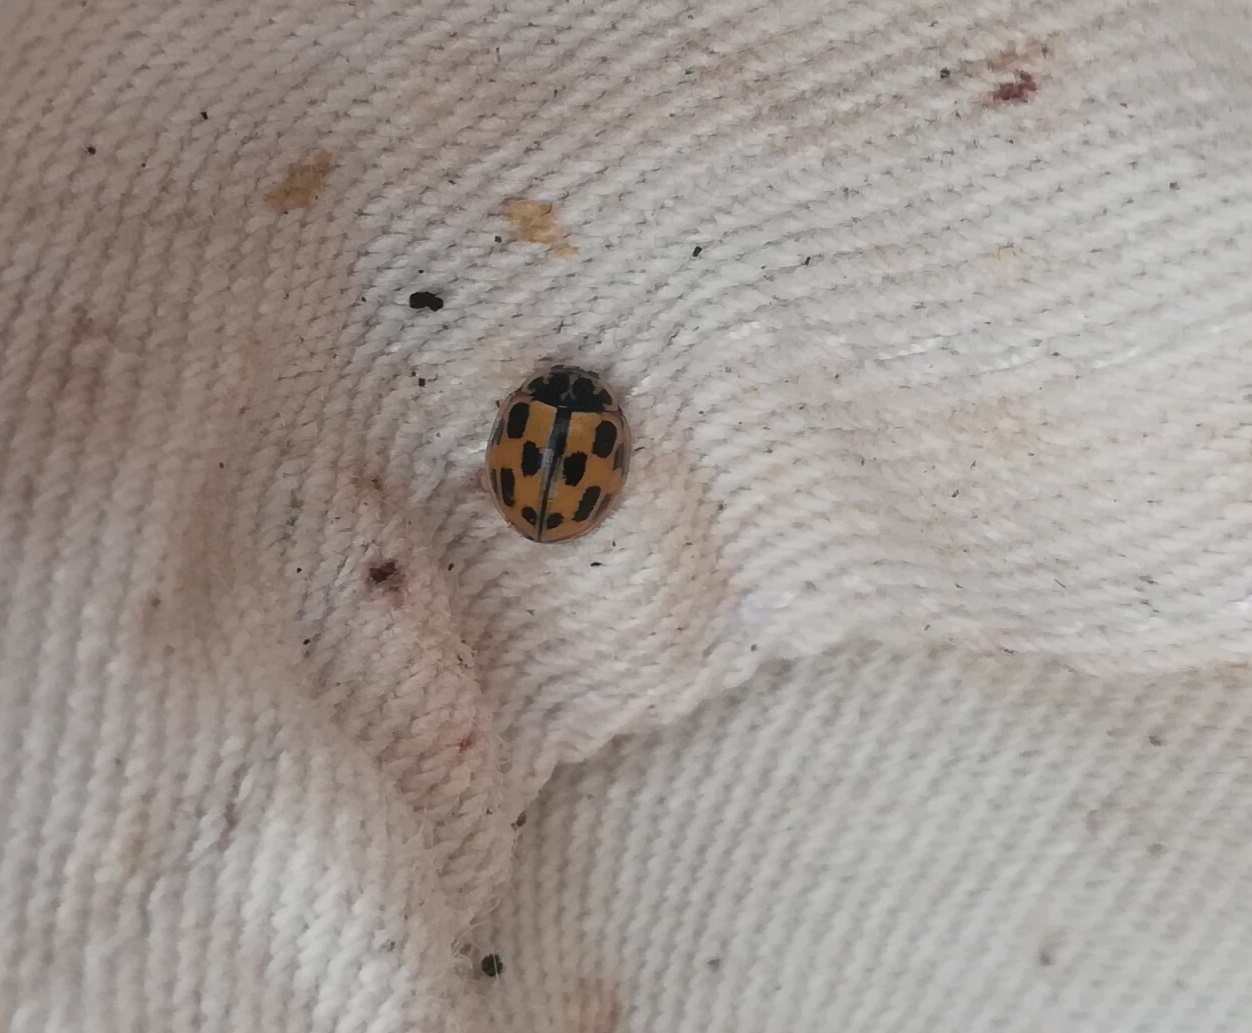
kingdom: Animalia
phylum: Arthropoda
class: Insecta
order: Coleoptera
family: Coccinellidae
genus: Propylaea
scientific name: Propylaea quatuordecimpunctata
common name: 14-spotted ladybird beetle
